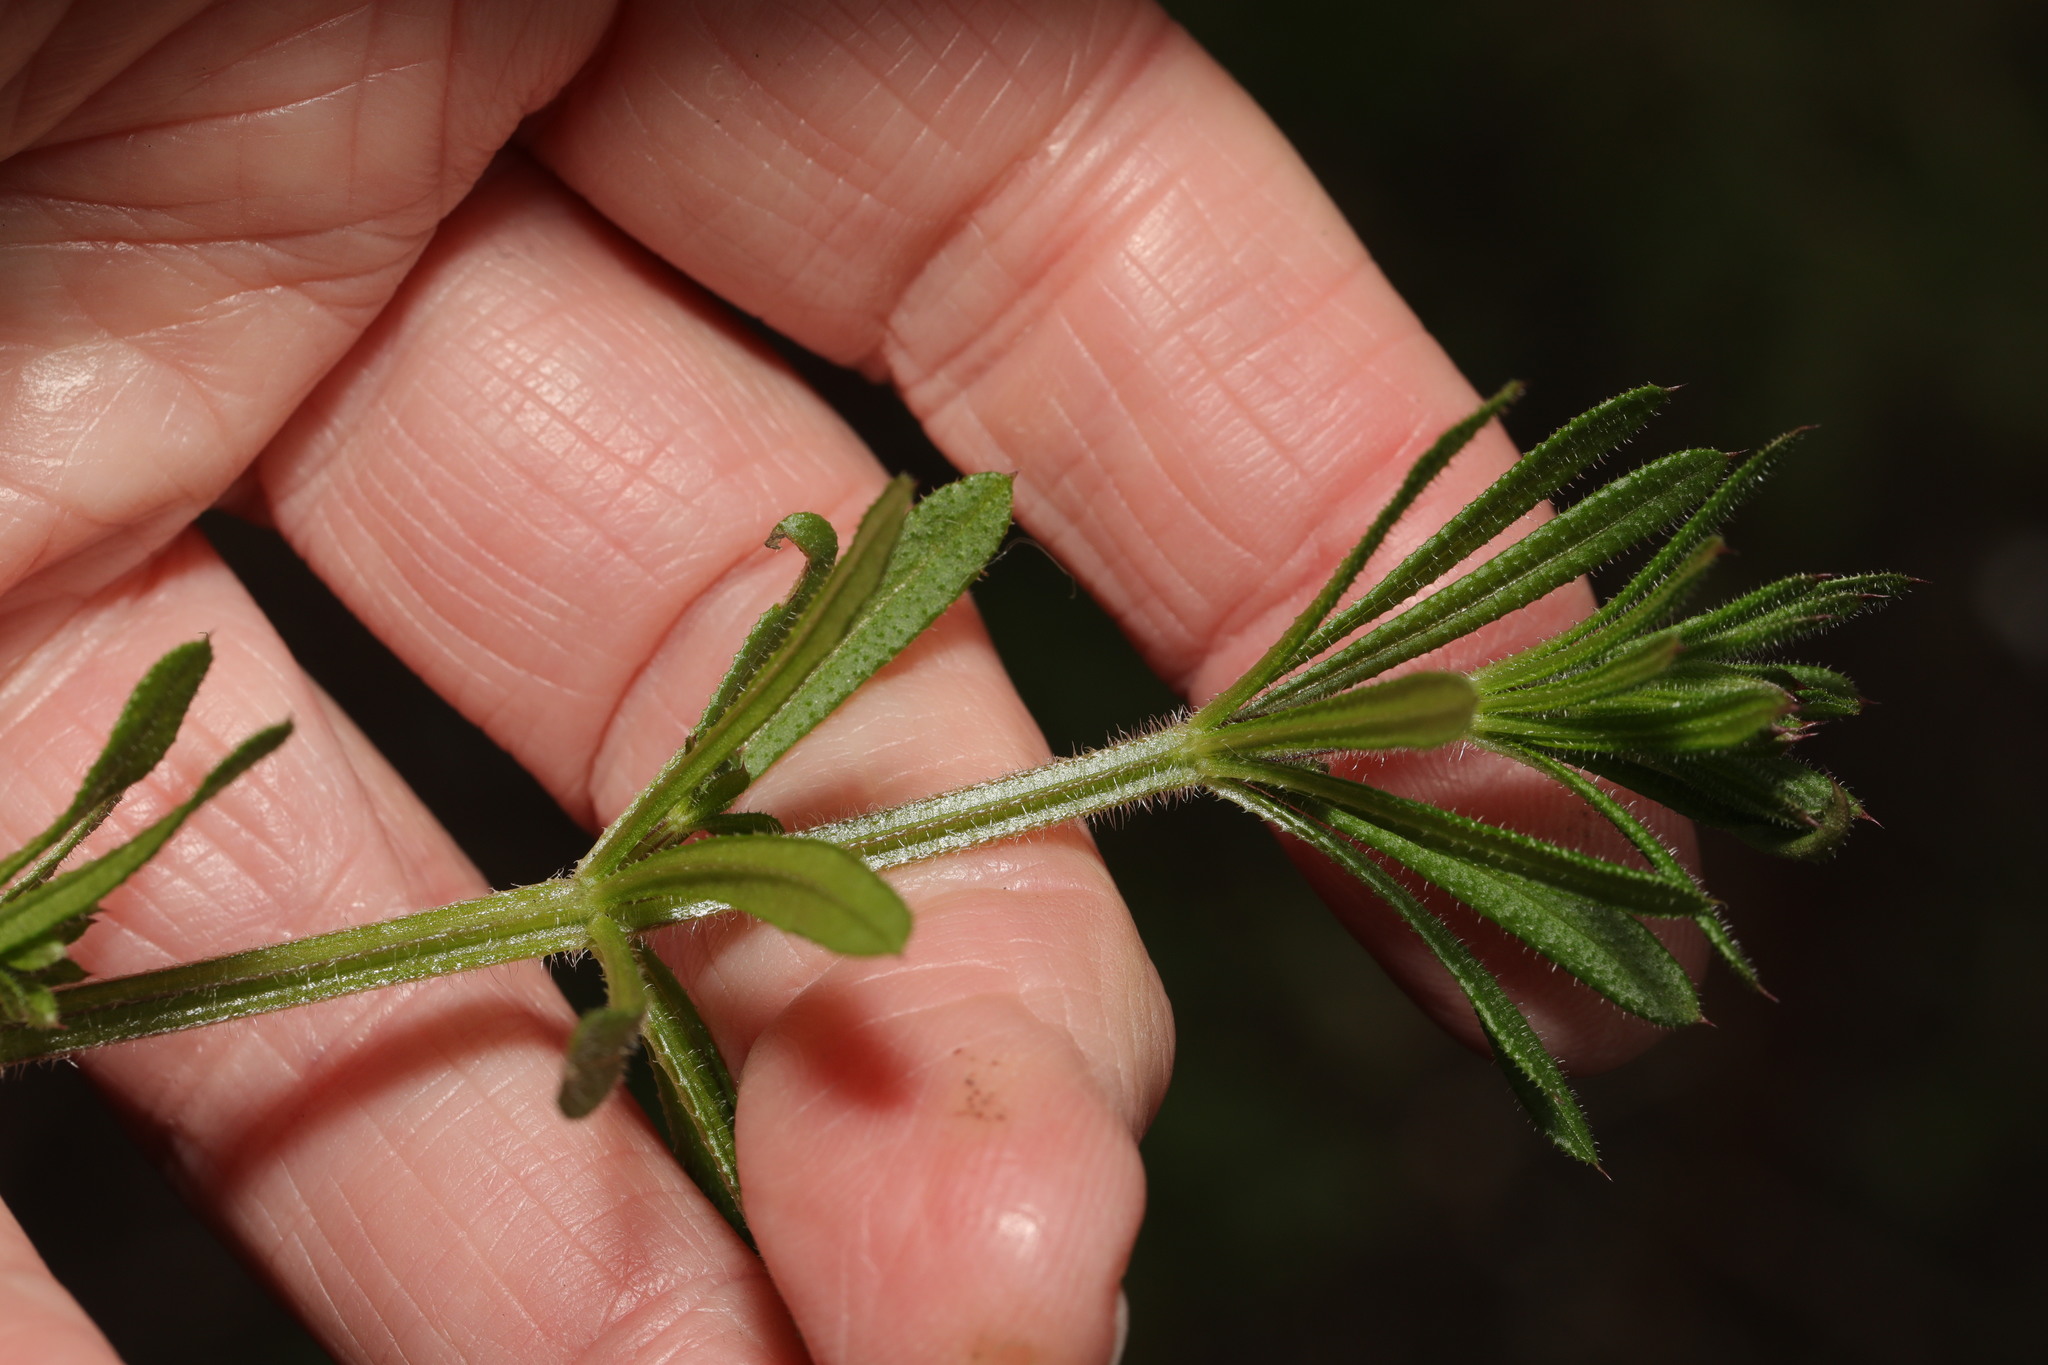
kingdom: Plantae
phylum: Tracheophyta
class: Magnoliopsida
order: Gentianales
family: Rubiaceae
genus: Galium
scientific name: Galium aparine
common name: Cleavers
